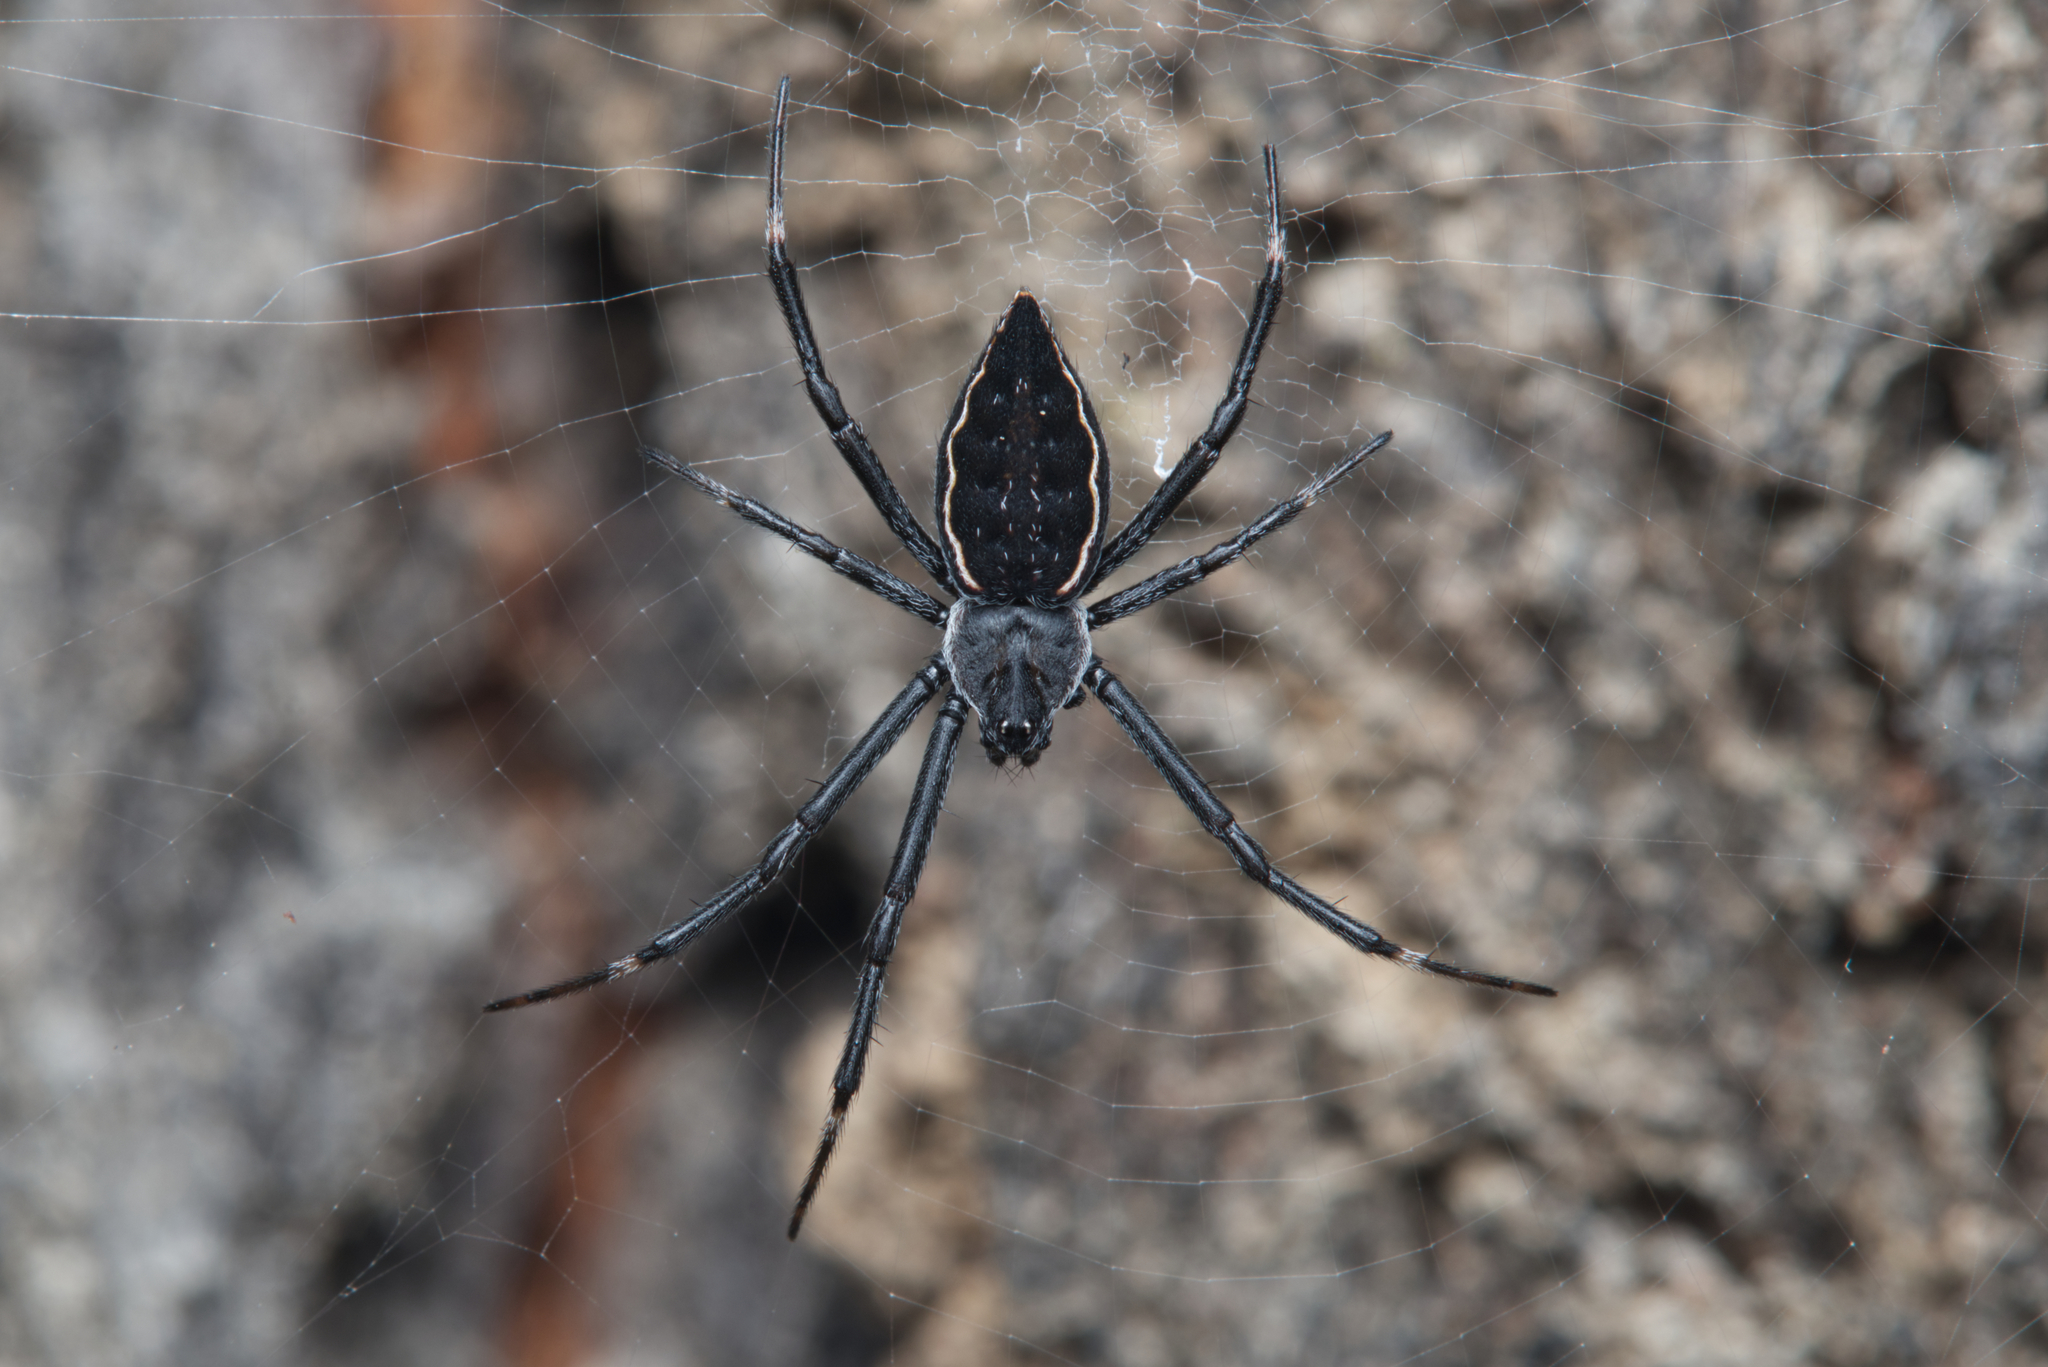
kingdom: Animalia
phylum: Arthropoda
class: Arachnida
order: Araneae
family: Araneidae
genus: Argiope
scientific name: Argiope ocyaloides
